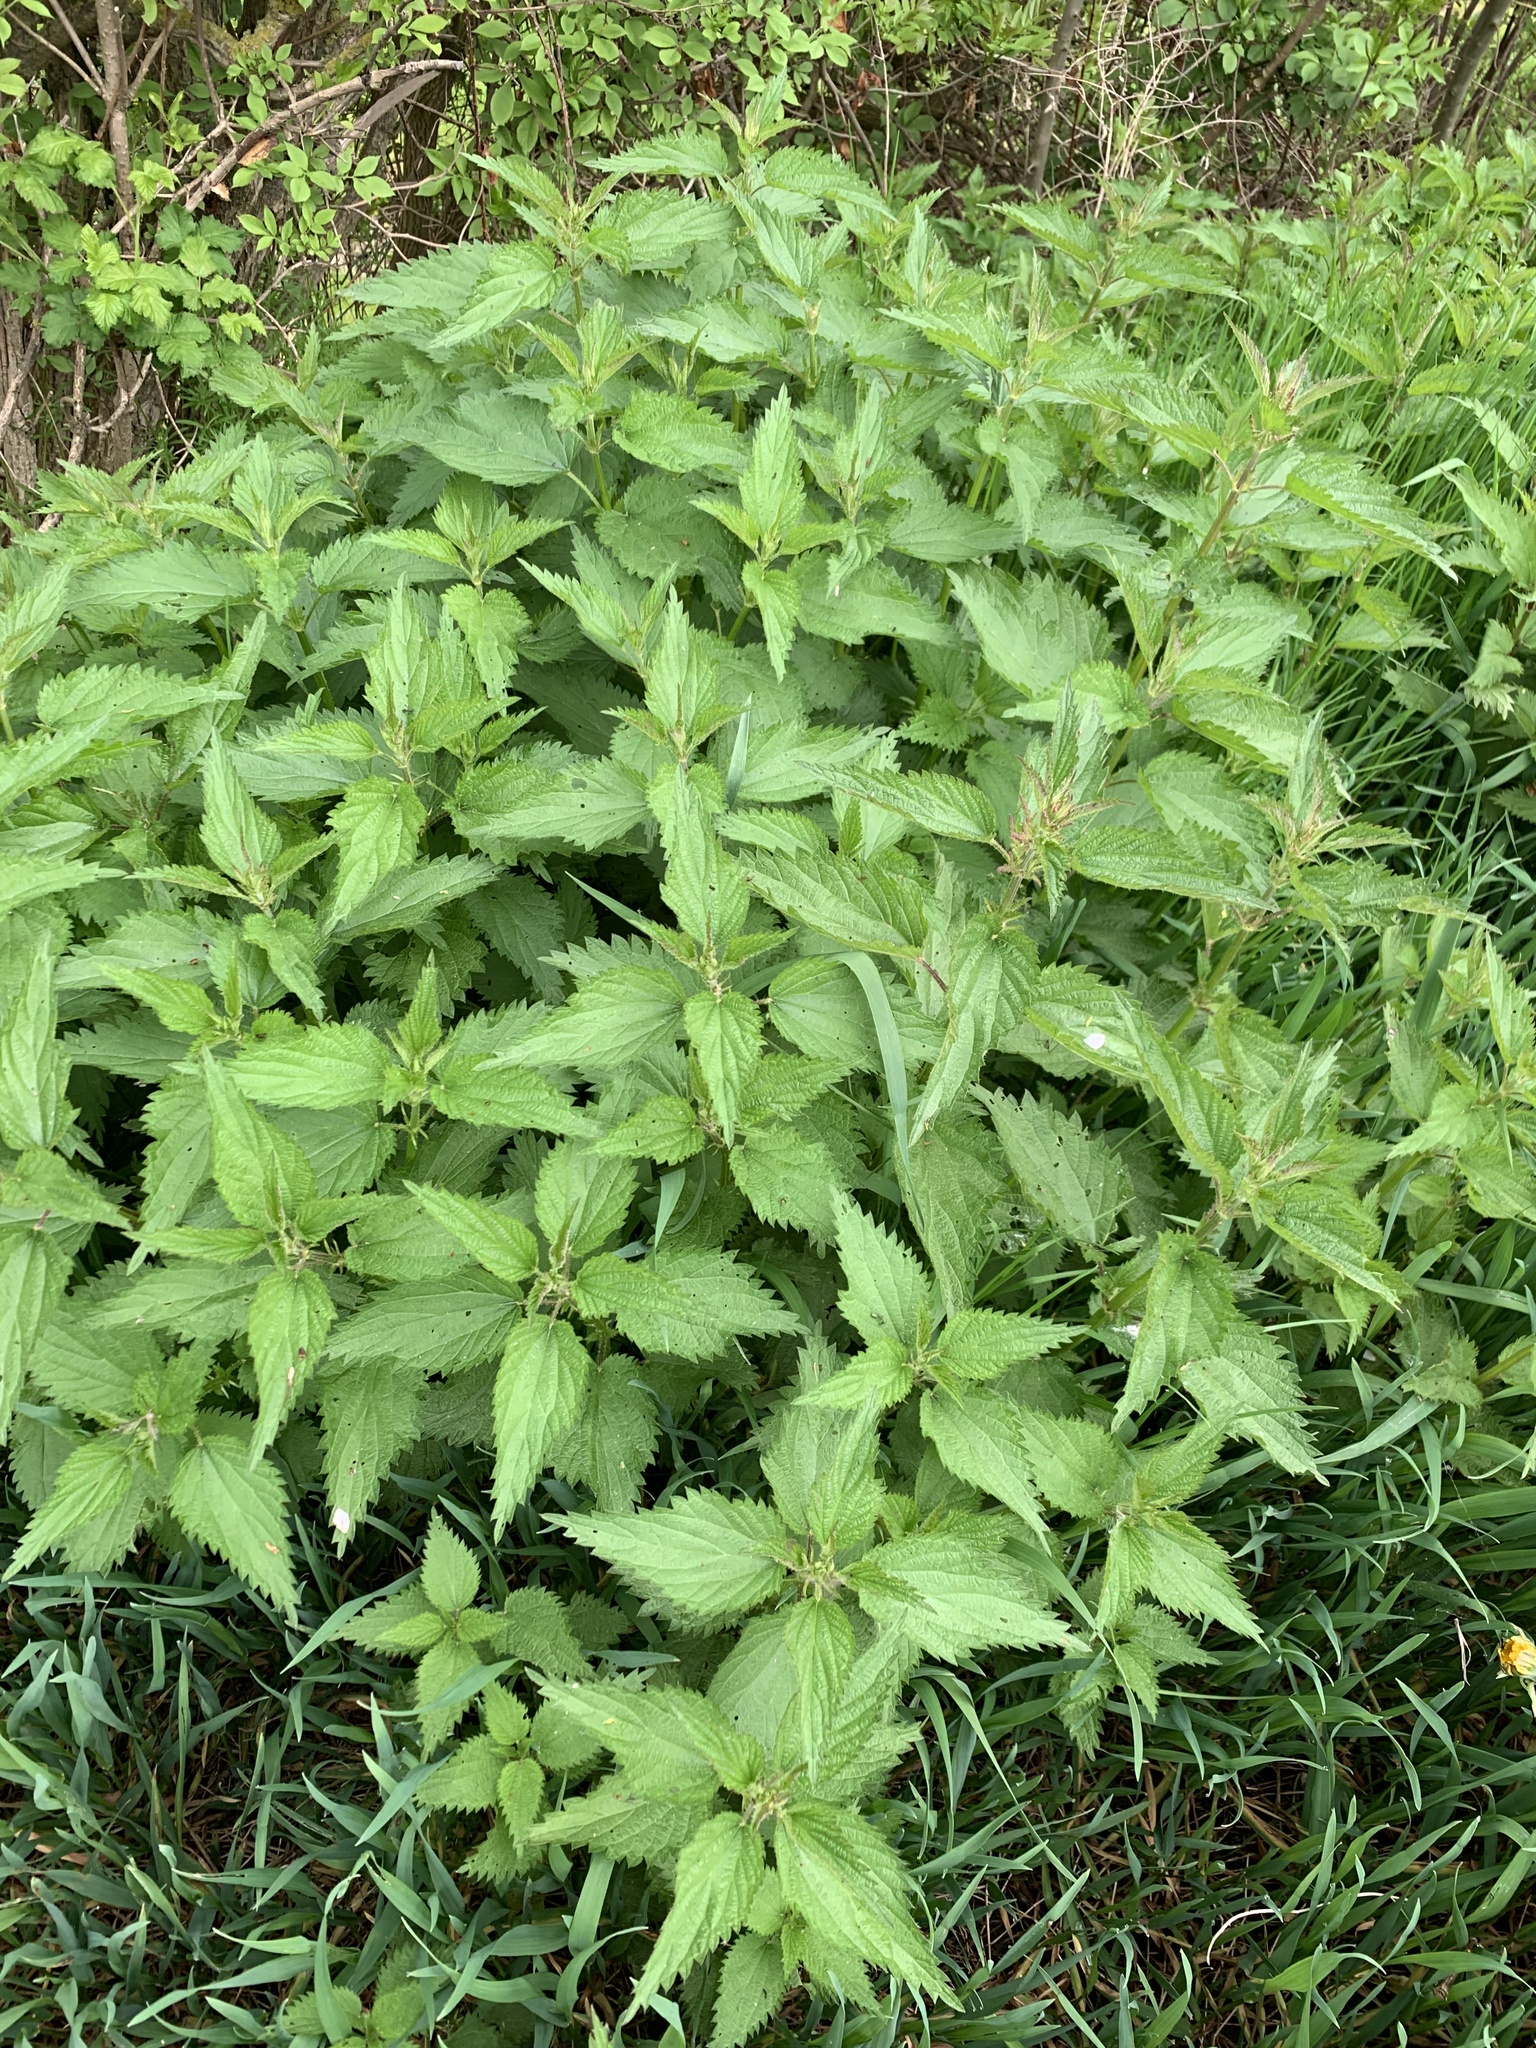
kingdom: Plantae
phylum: Tracheophyta
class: Magnoliopsida
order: Rosales
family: Urticaceae
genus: Urtica
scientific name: Urtica dioica
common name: Common nettle
